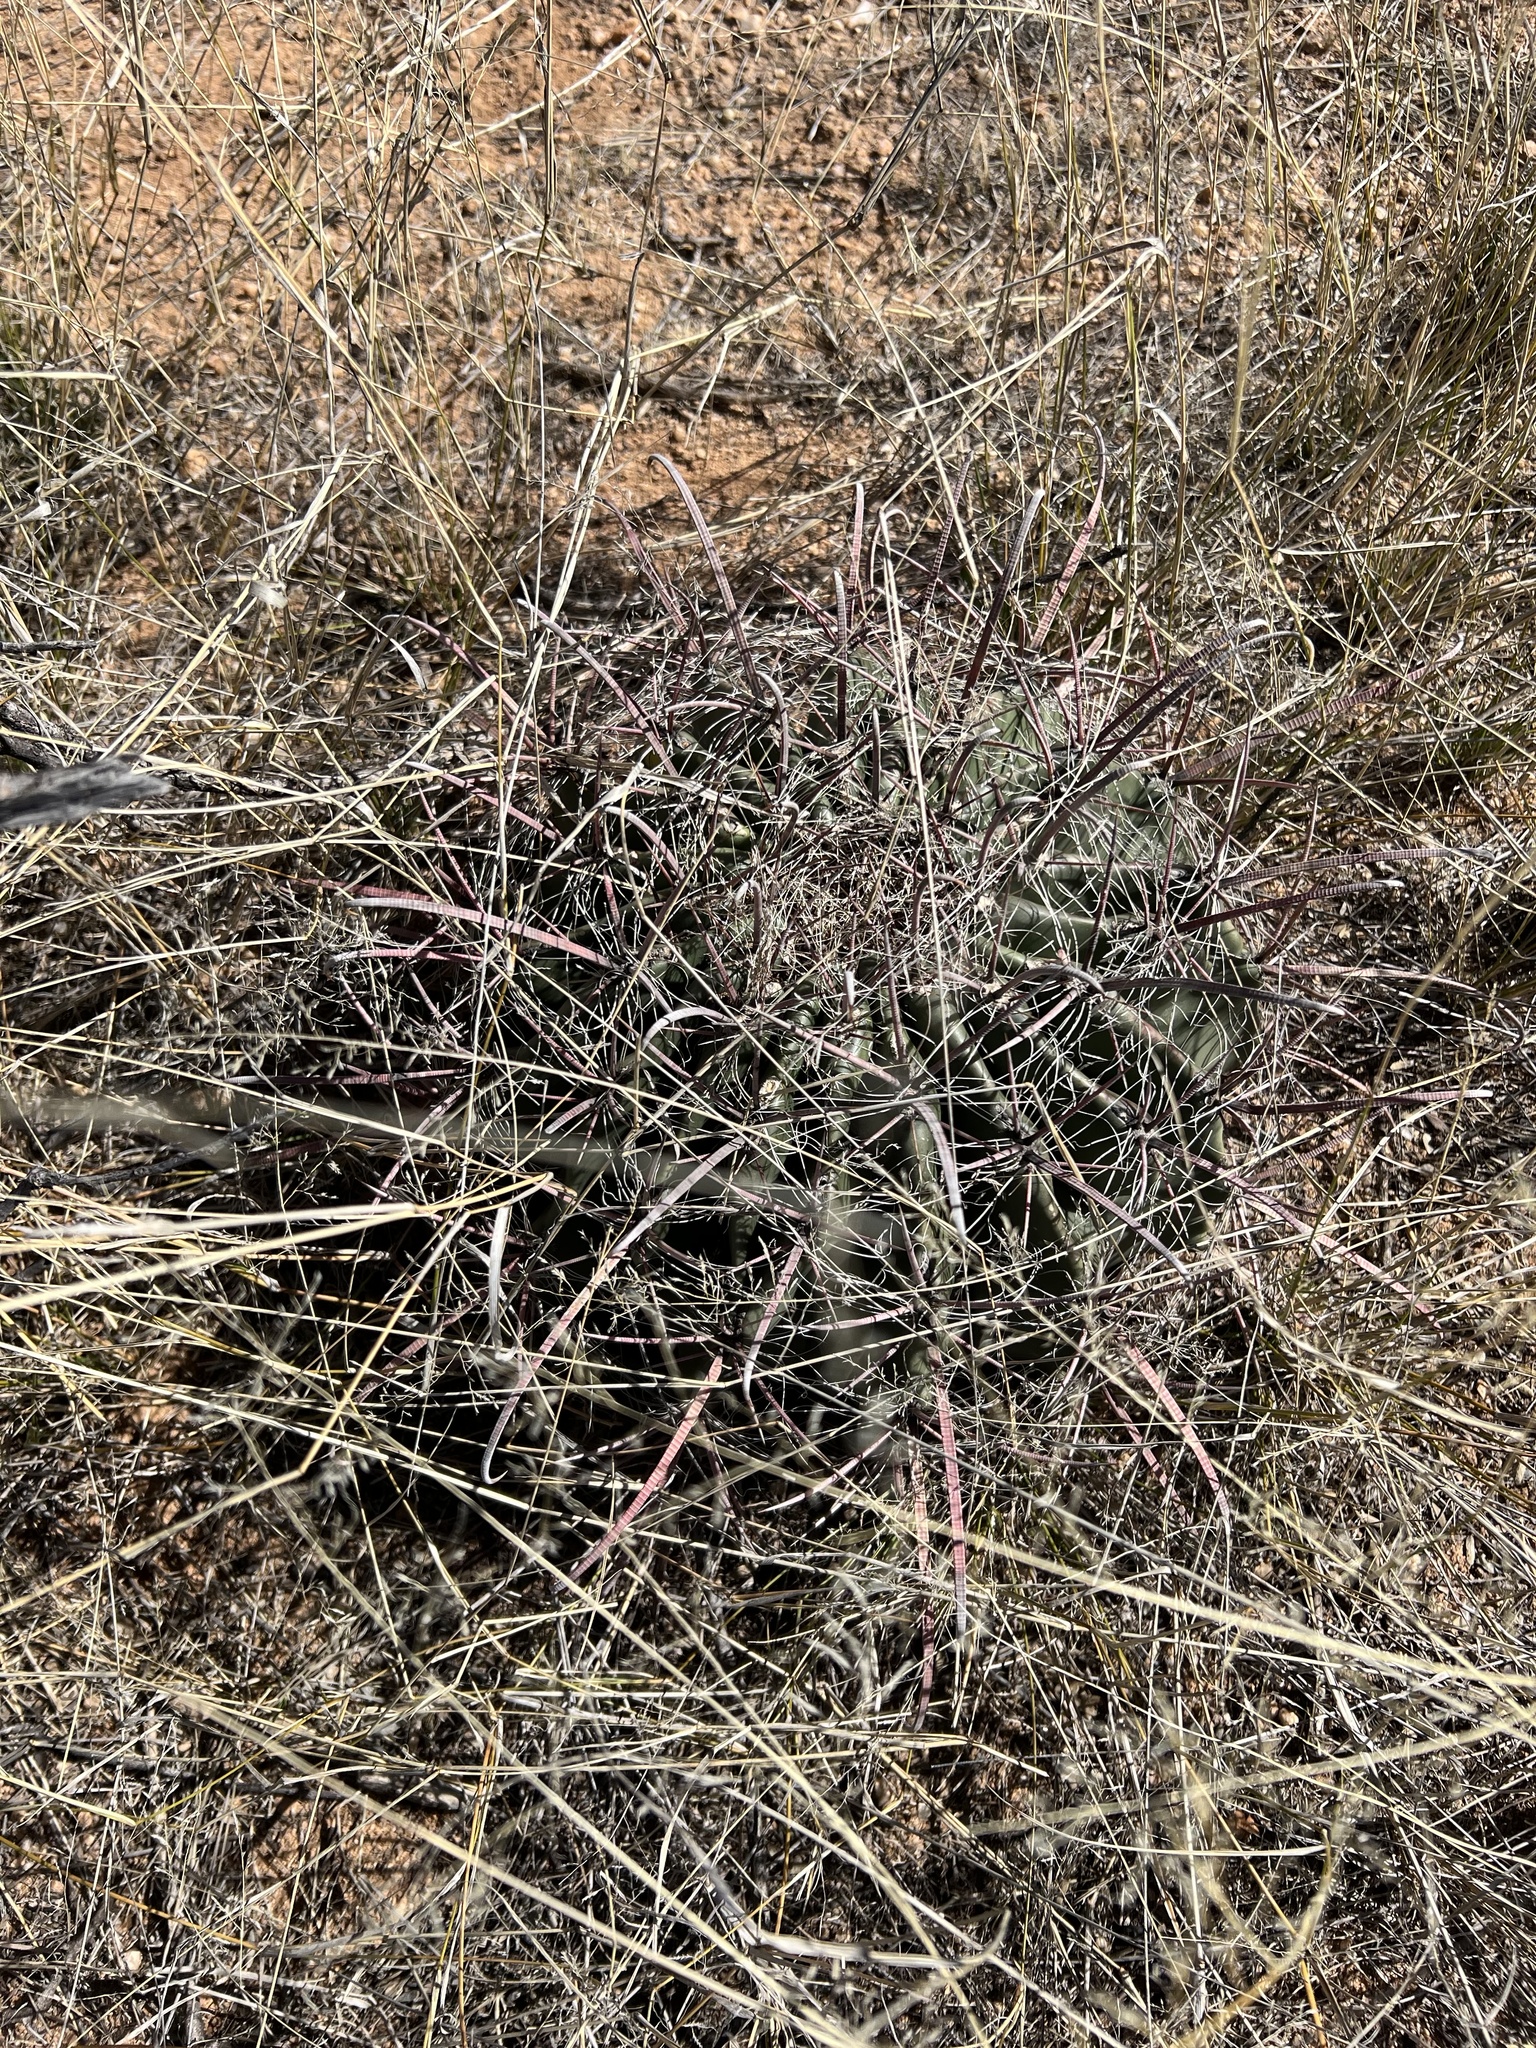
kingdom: Plantae
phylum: Tracheophyta
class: Magnoliopsida
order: Caryophyllales
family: Cactaceae
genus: Ferocactus
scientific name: Ferocactus wislizeni
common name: Candy barrel cactus
